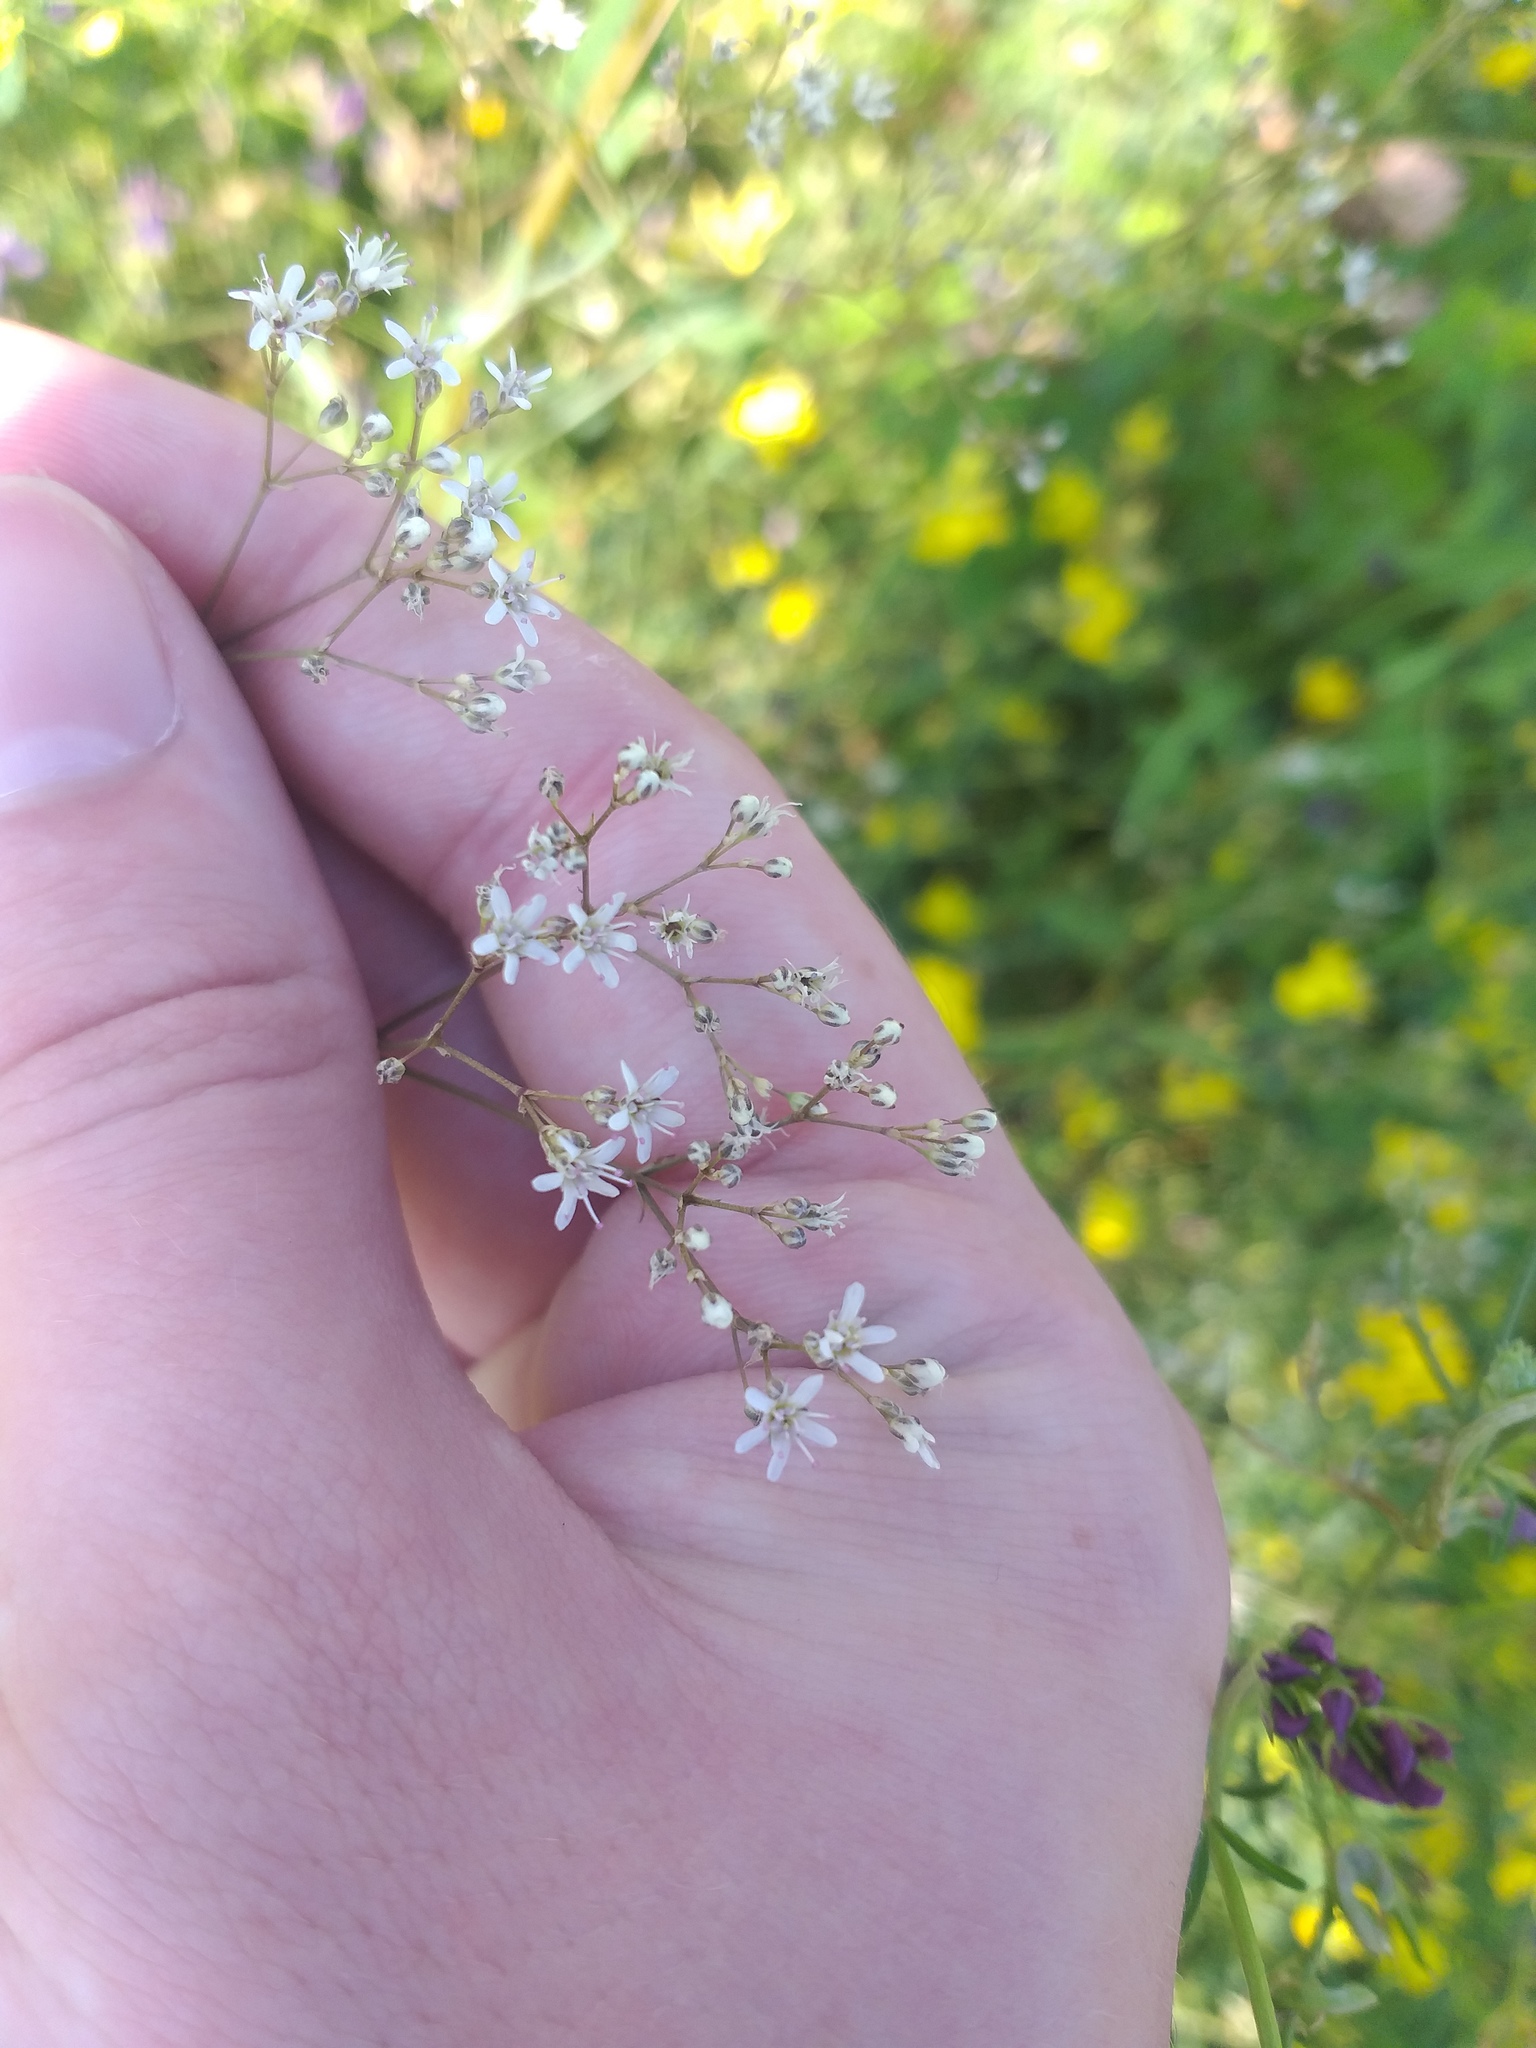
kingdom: Plantae
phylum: Tracheophyta
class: Magnoliopsida
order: Caryophyllales
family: Caryophyllaceae
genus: Gypsophila
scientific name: Gypsophila altissima
